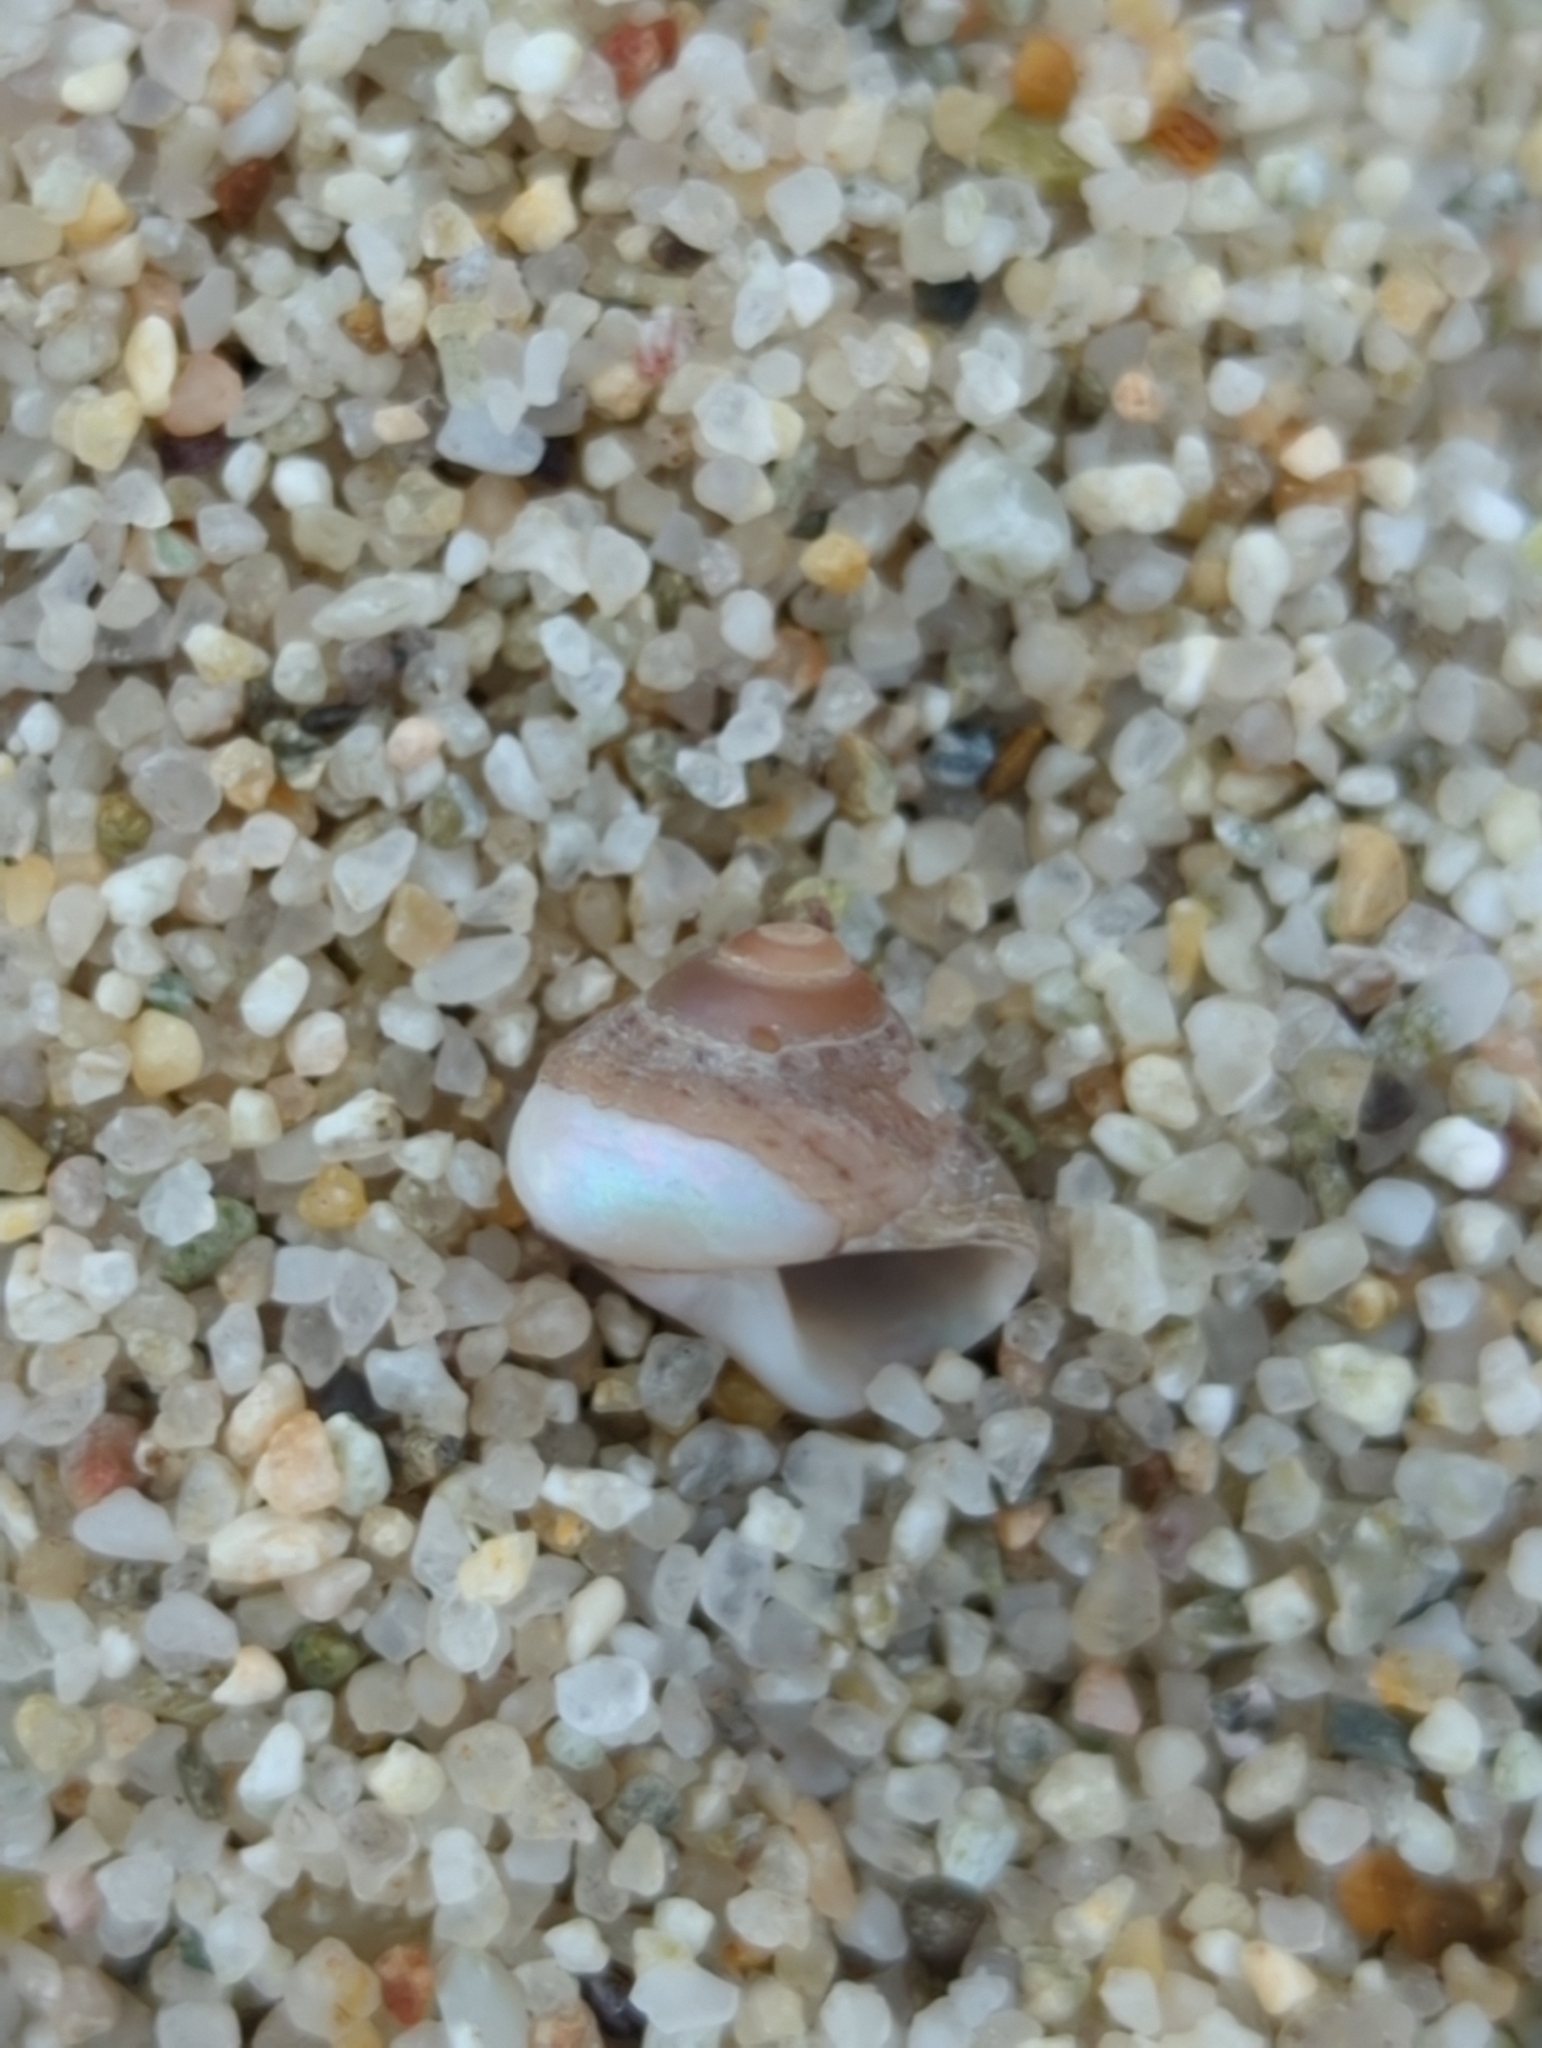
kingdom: Animalia
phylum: Mollusca
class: Gastropoda
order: Trochida
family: Trochidae
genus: Phorcus
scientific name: Phorcus articulatus
